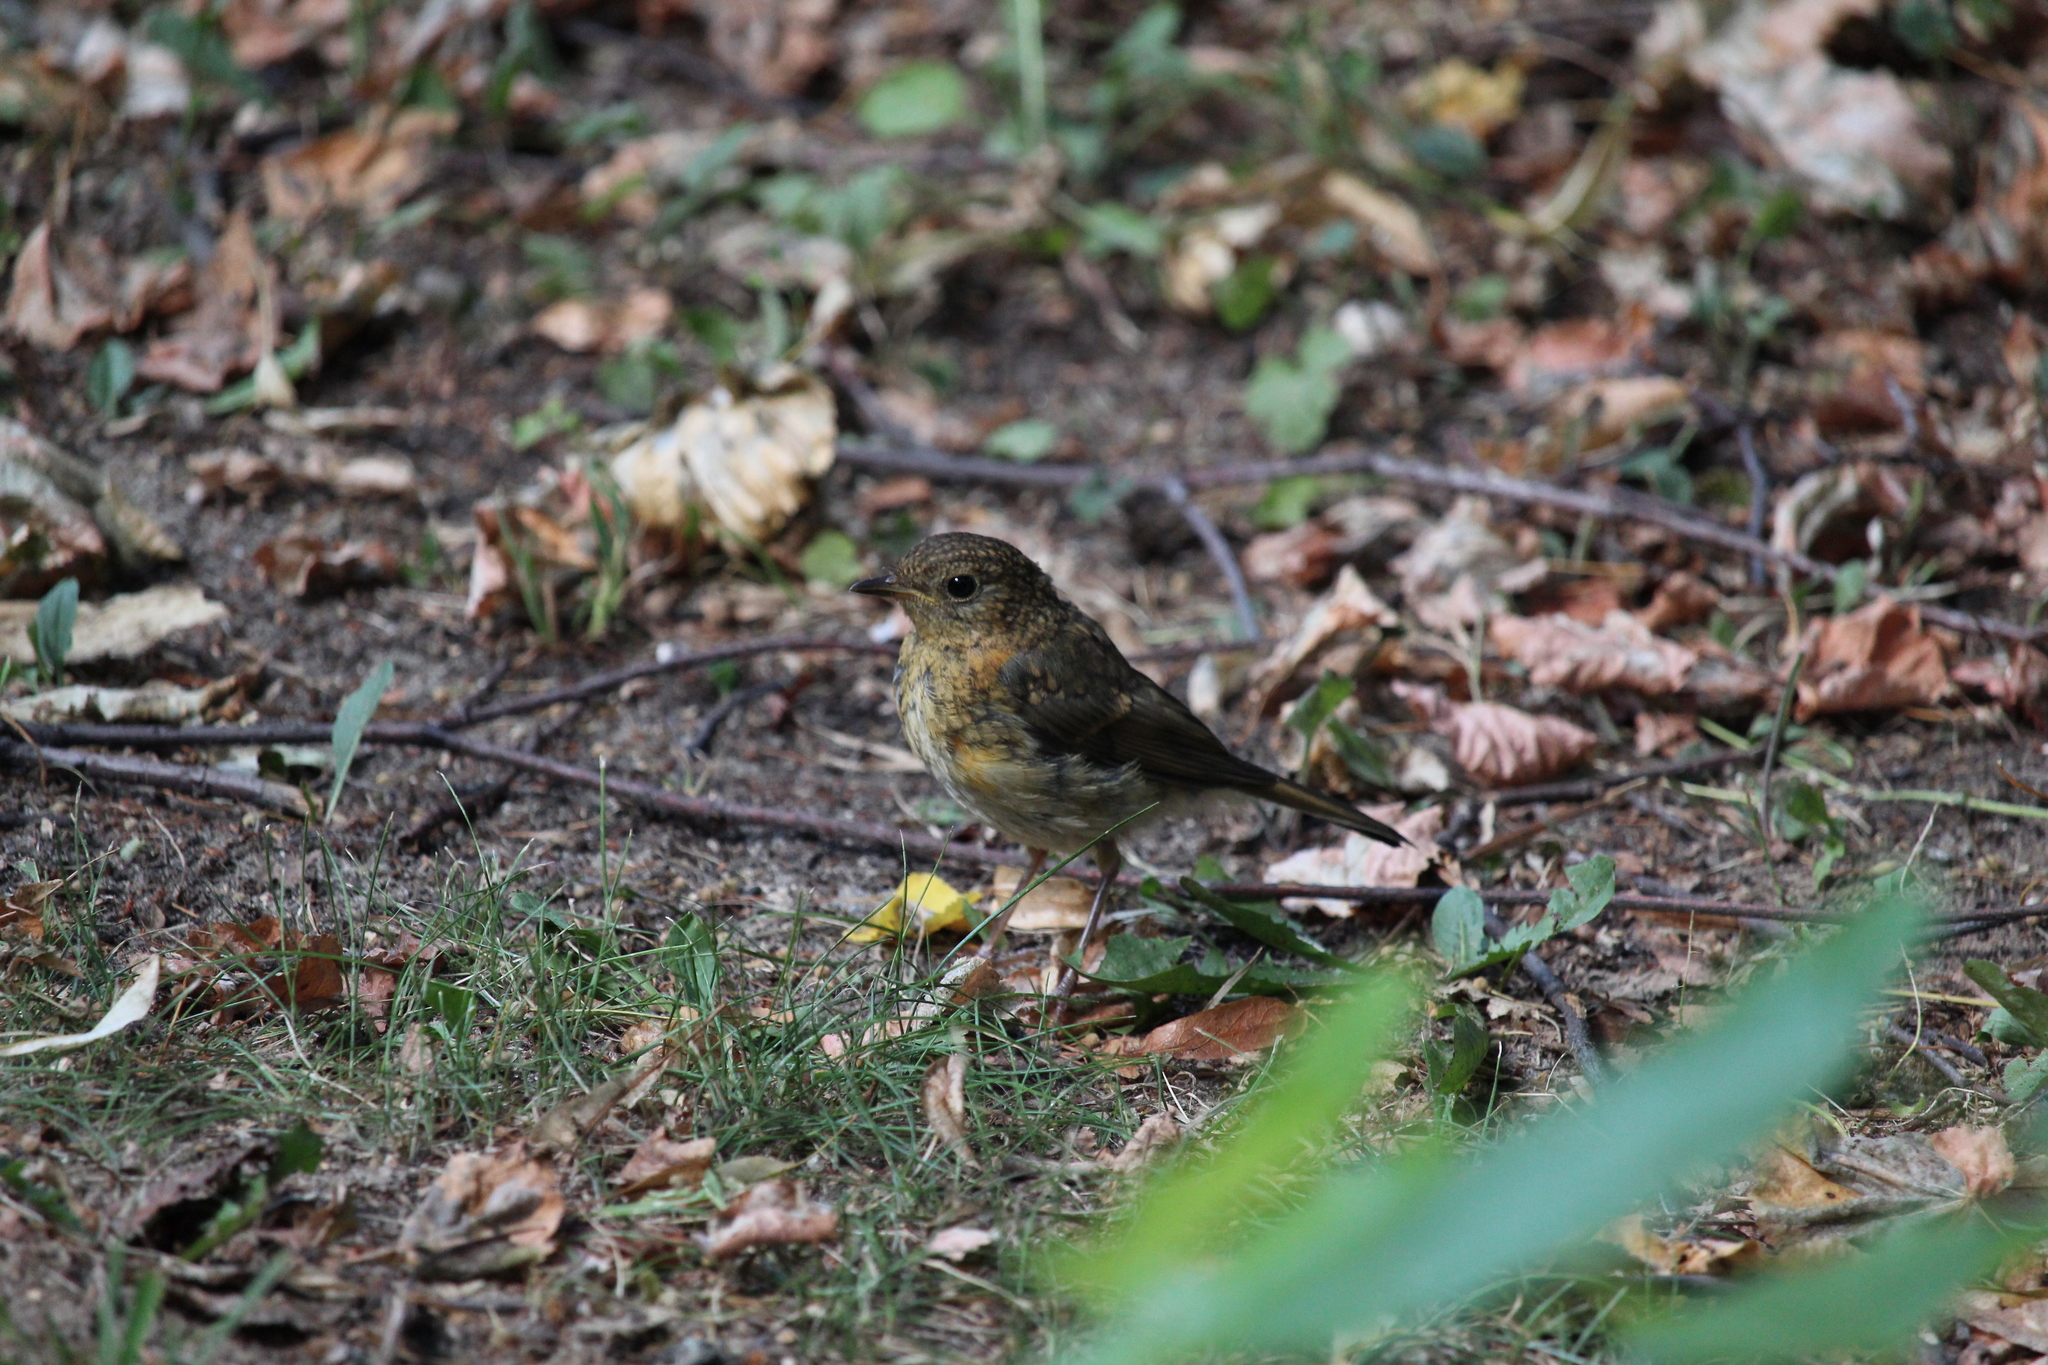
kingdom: Animalia
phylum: Chordata
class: Aves
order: Passeriformes
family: Muscicapidae
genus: Erithacus
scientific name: Erithacus rubecula
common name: European robin
